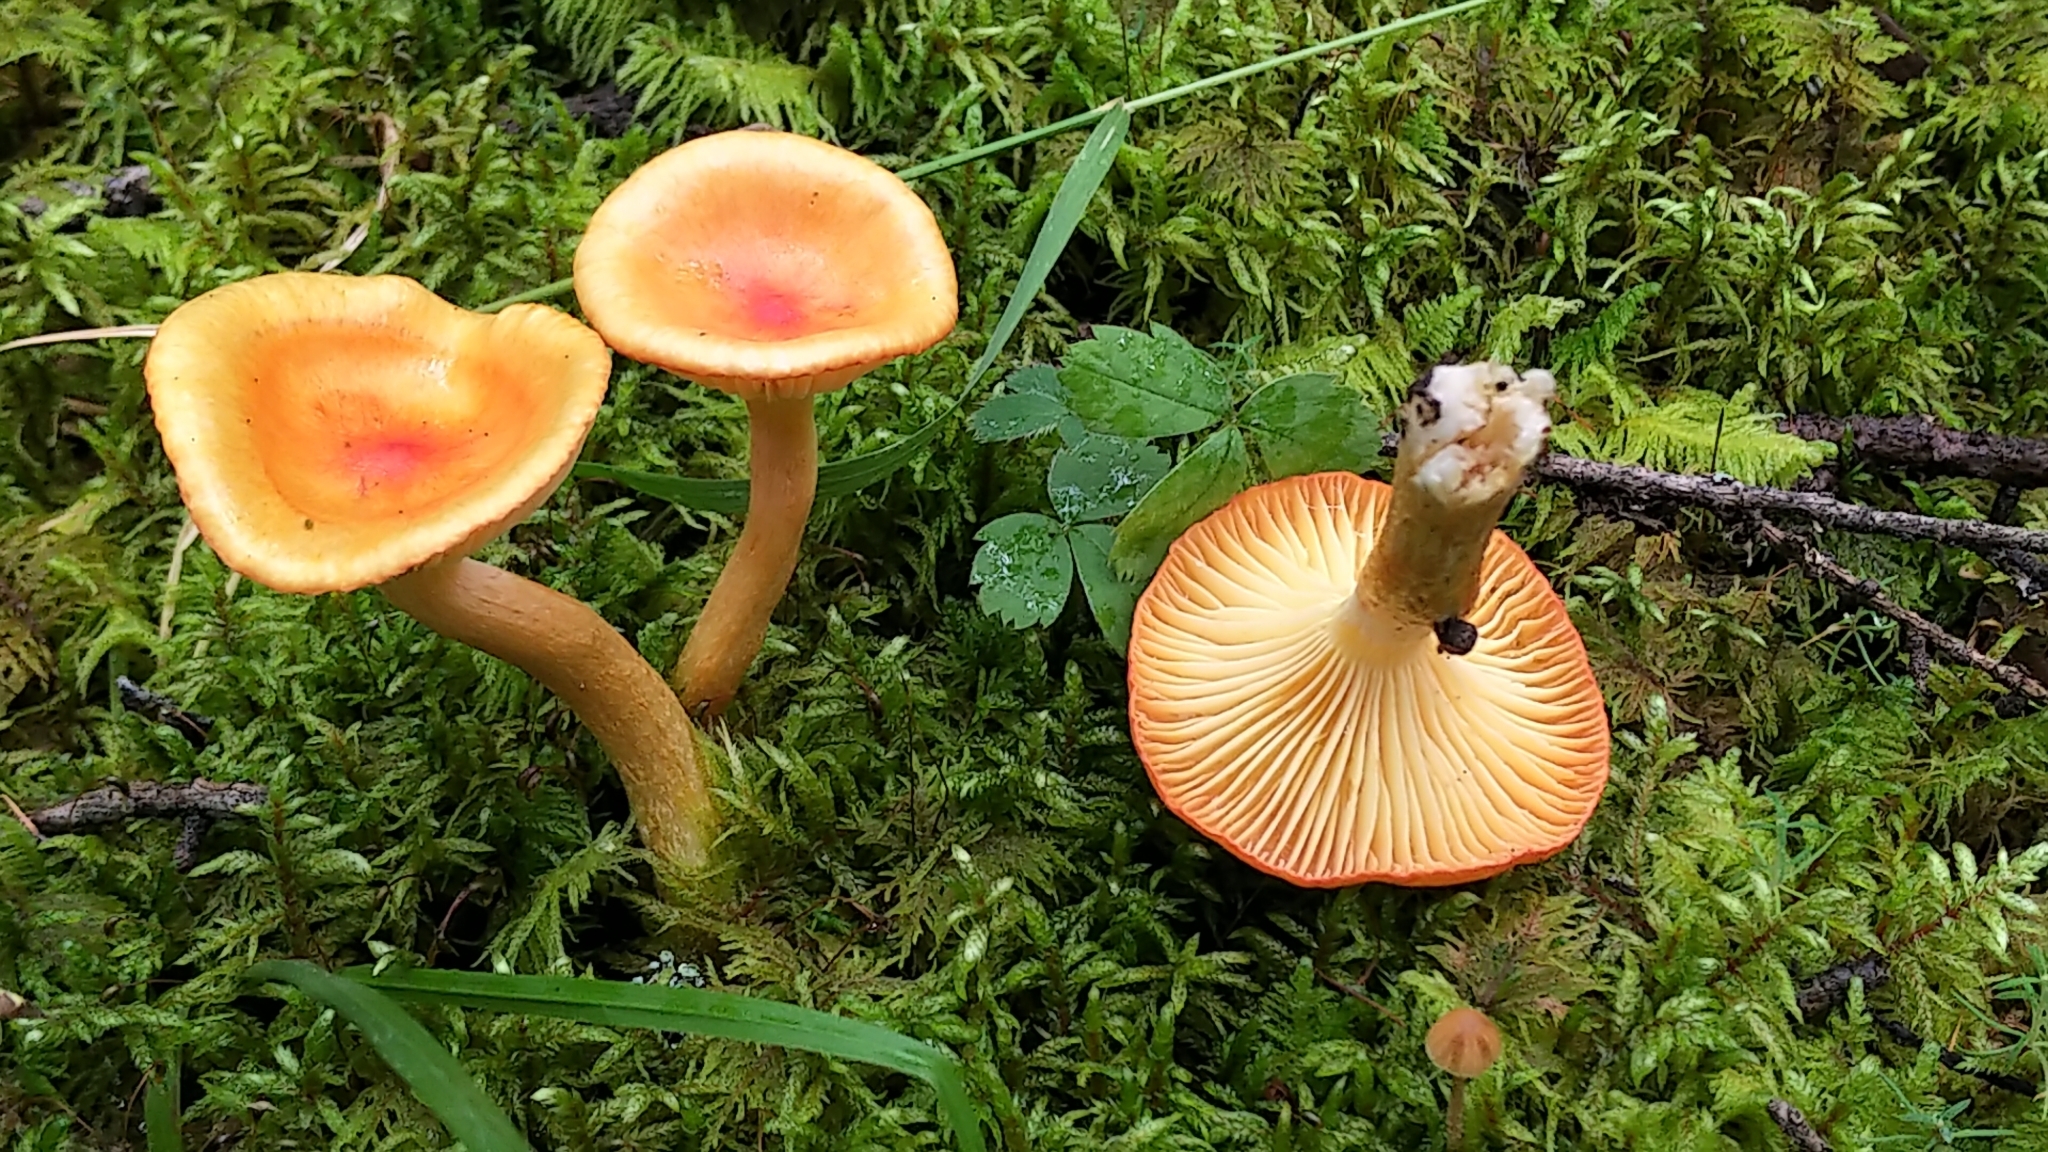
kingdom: Fungi
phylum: Basidiomycota
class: Agaricomycetes
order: Agaricales
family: Hygrophoraceae
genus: Hygrophorus
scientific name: Hygrophorus speciosus
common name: Splendid woodwax
